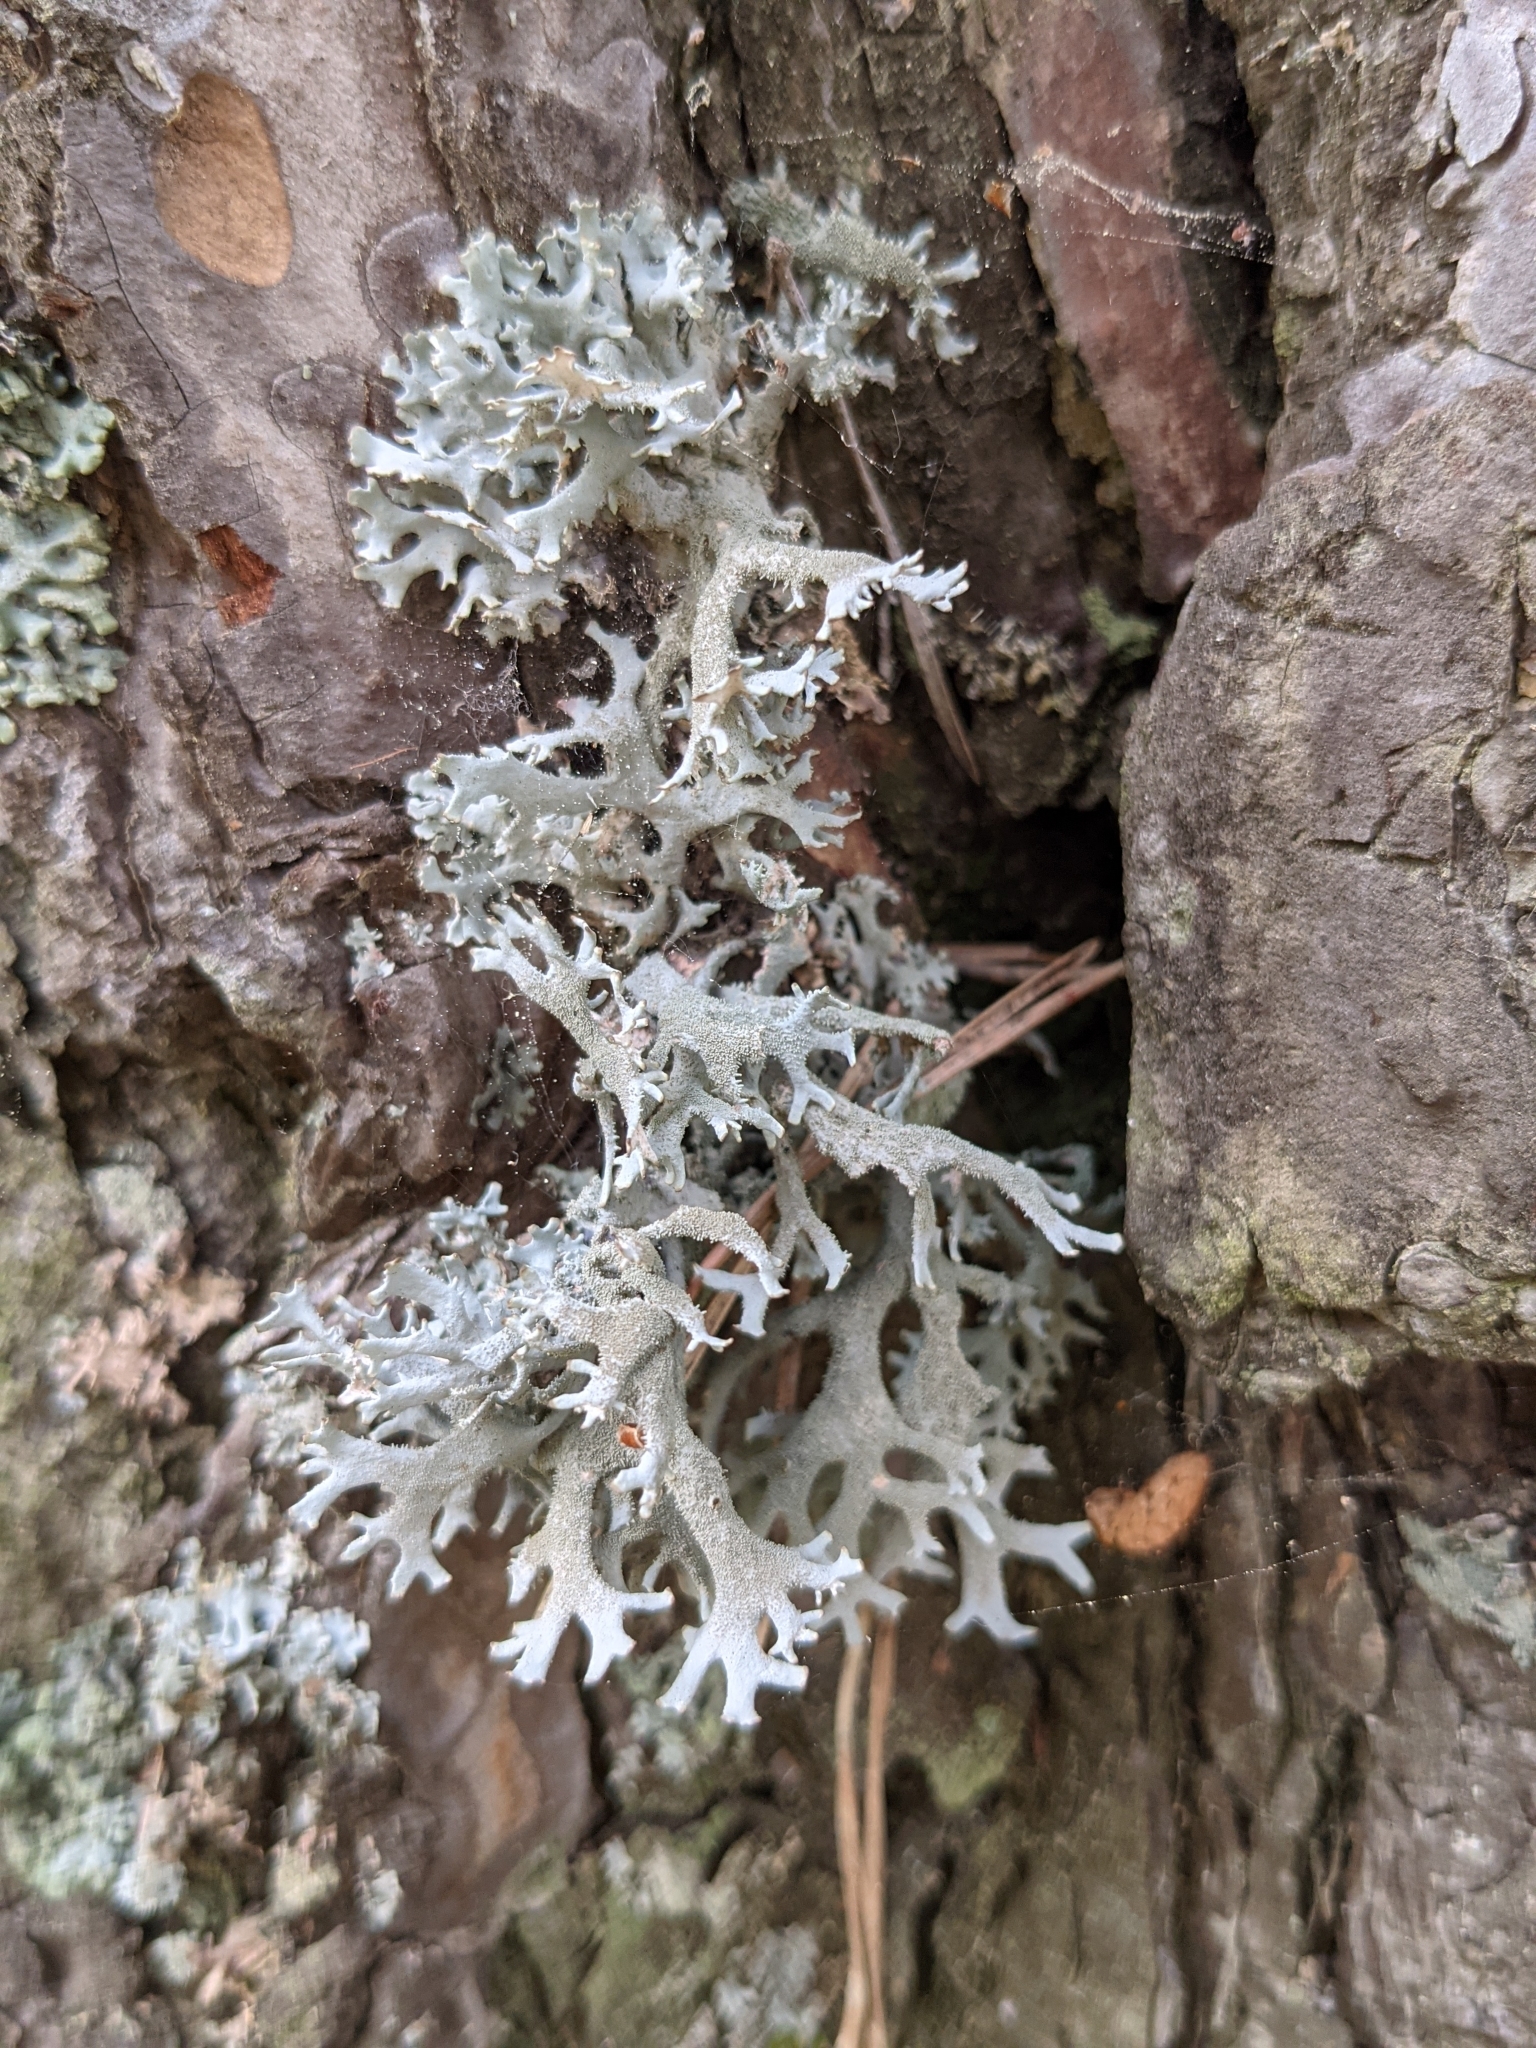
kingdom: Fungi
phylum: Ascomycota
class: Lecanoromycetes
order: Lecanorales
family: Parmeliaceae
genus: Pseudevernia
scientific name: Pseudevernia furfuracea
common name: Tree moss
